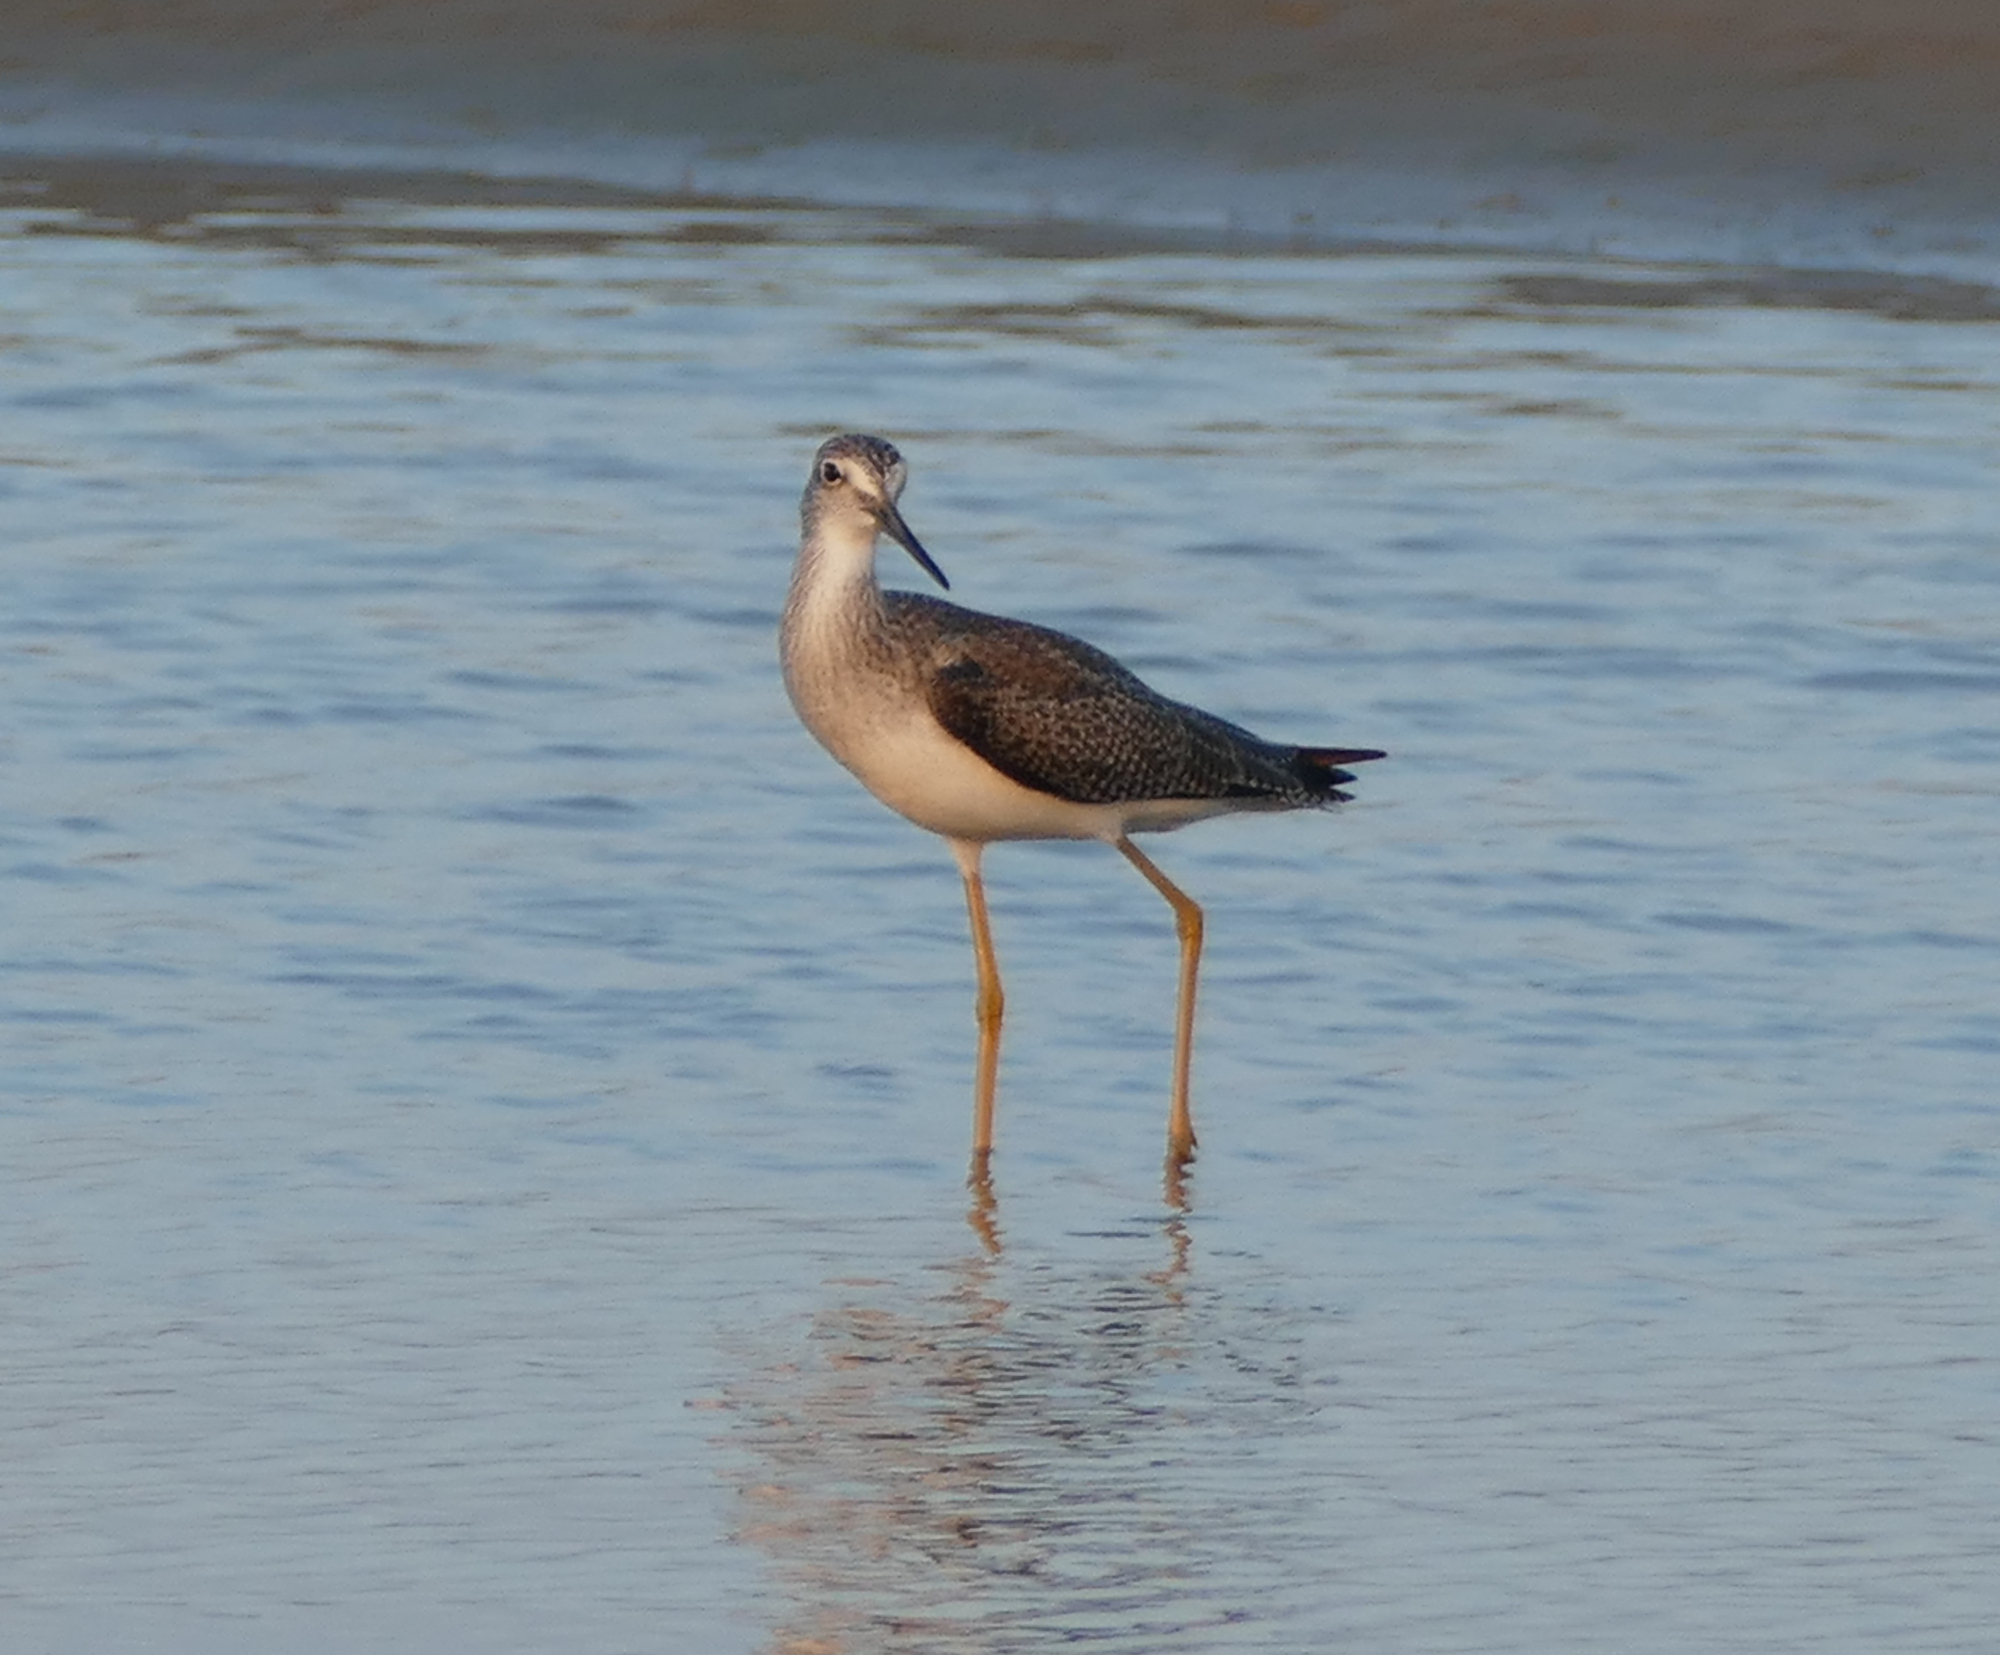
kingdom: Animalia
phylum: Chordata
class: Aves
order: Charadriiformes
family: Scolopacidae
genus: Tringa
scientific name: Tringa melanoleuca
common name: Greater yellowlegs
